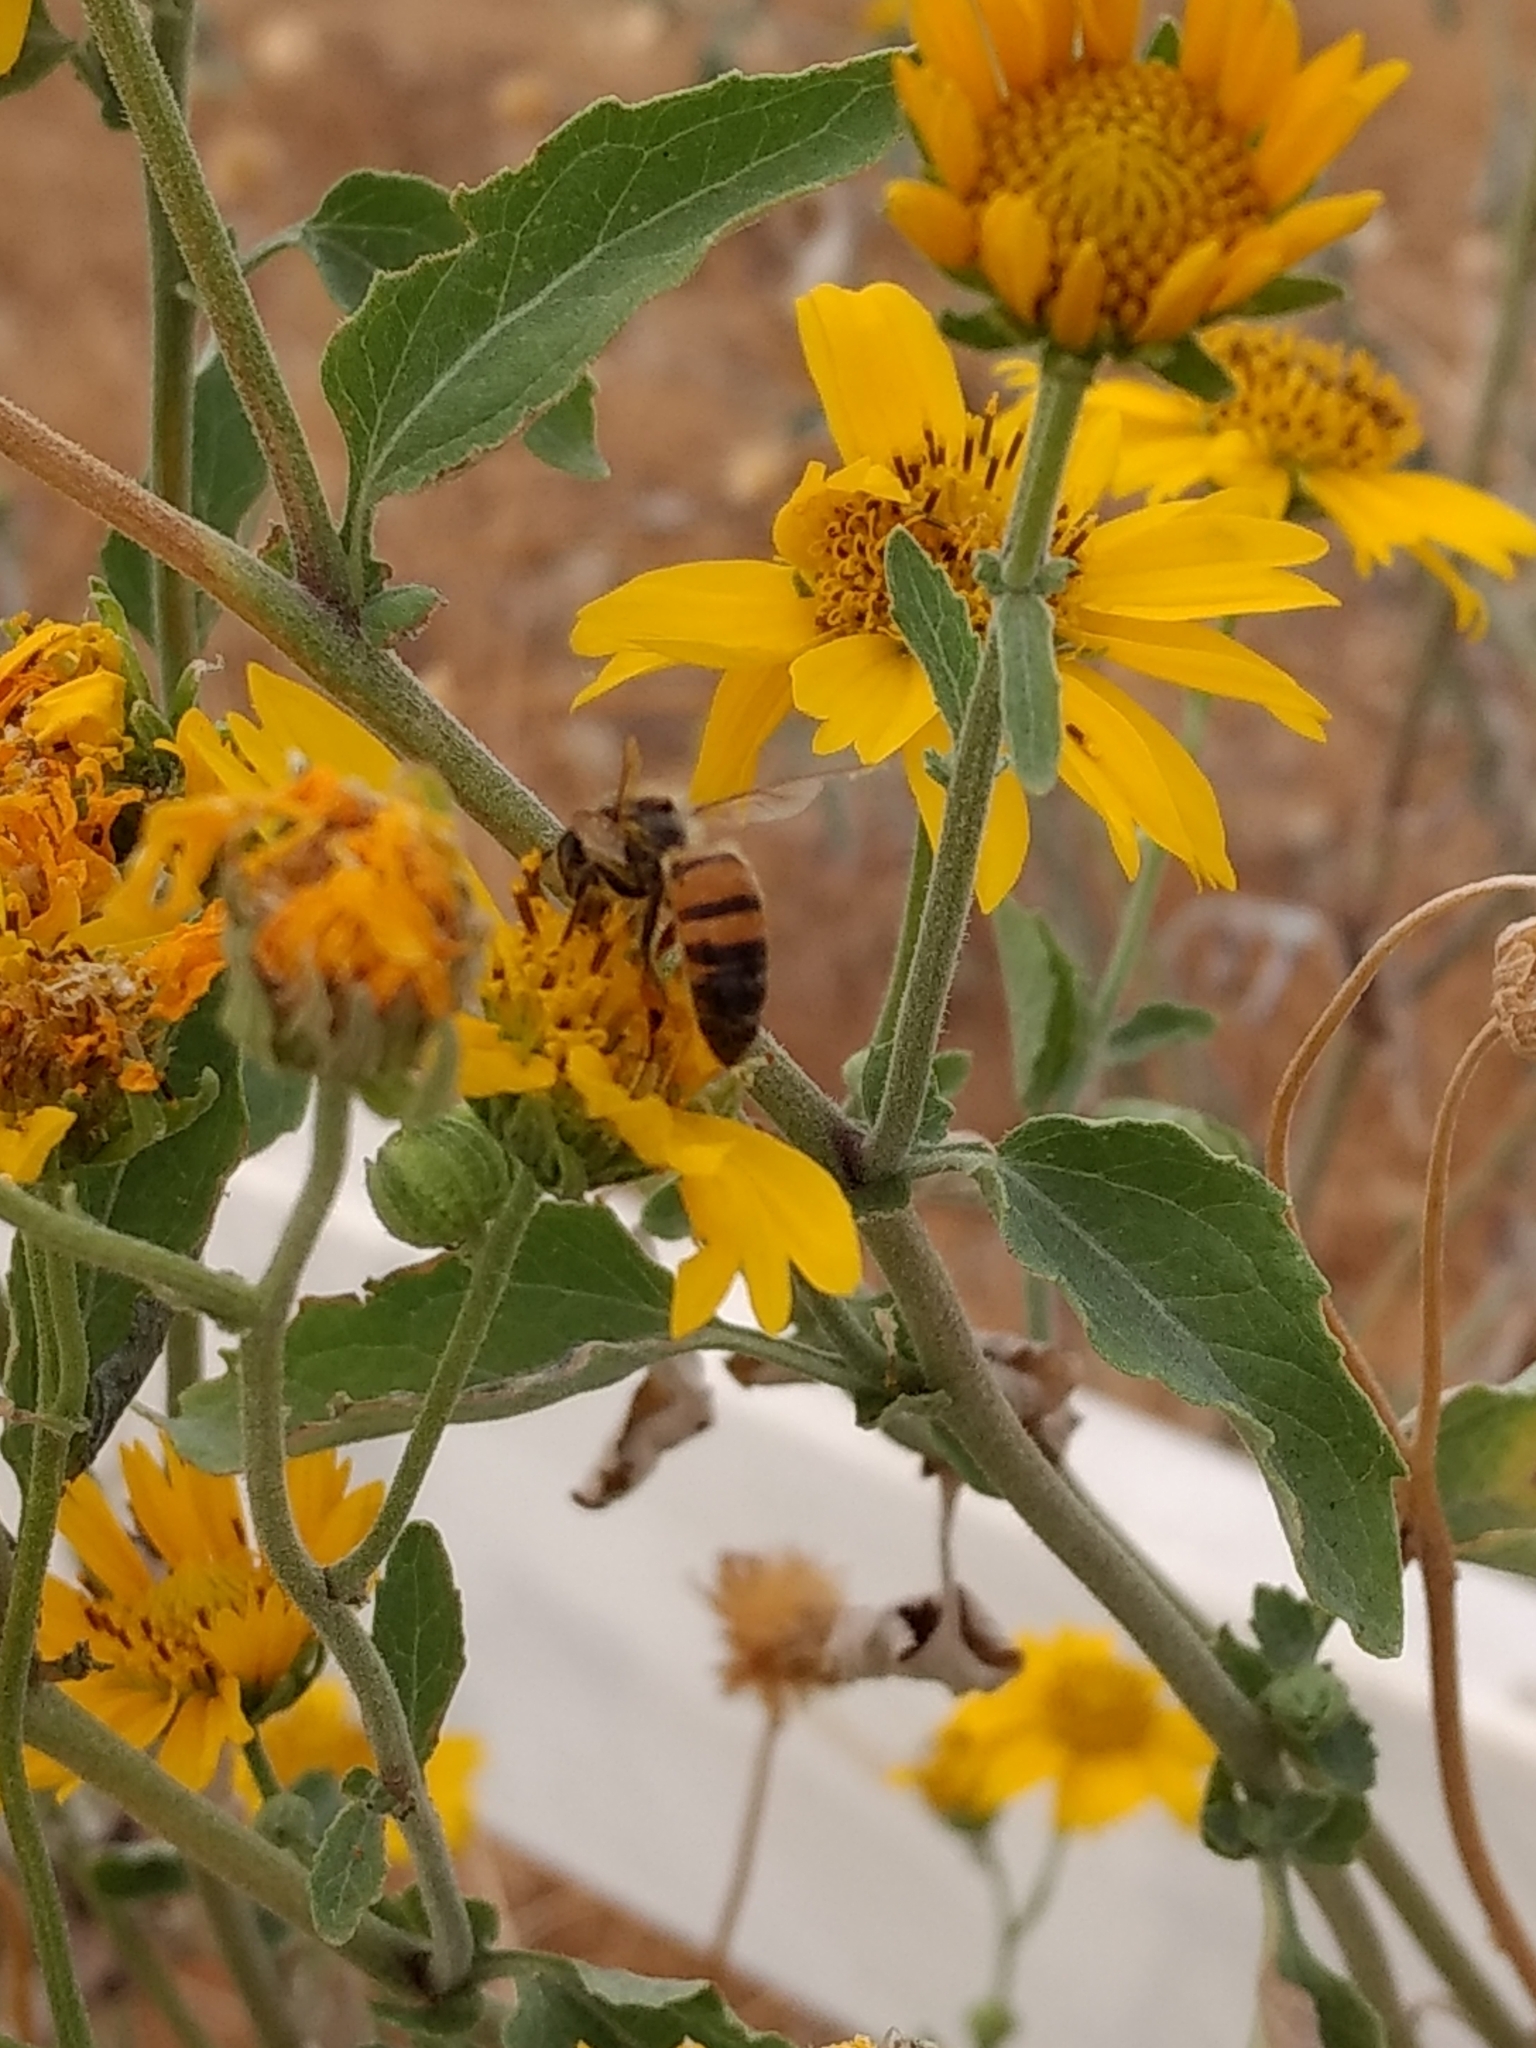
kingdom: Animalia
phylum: Arthropoda
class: Insecta
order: Hymenoptera
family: Apidae
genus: Apis
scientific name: Apis mellifera
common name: Honey bee
